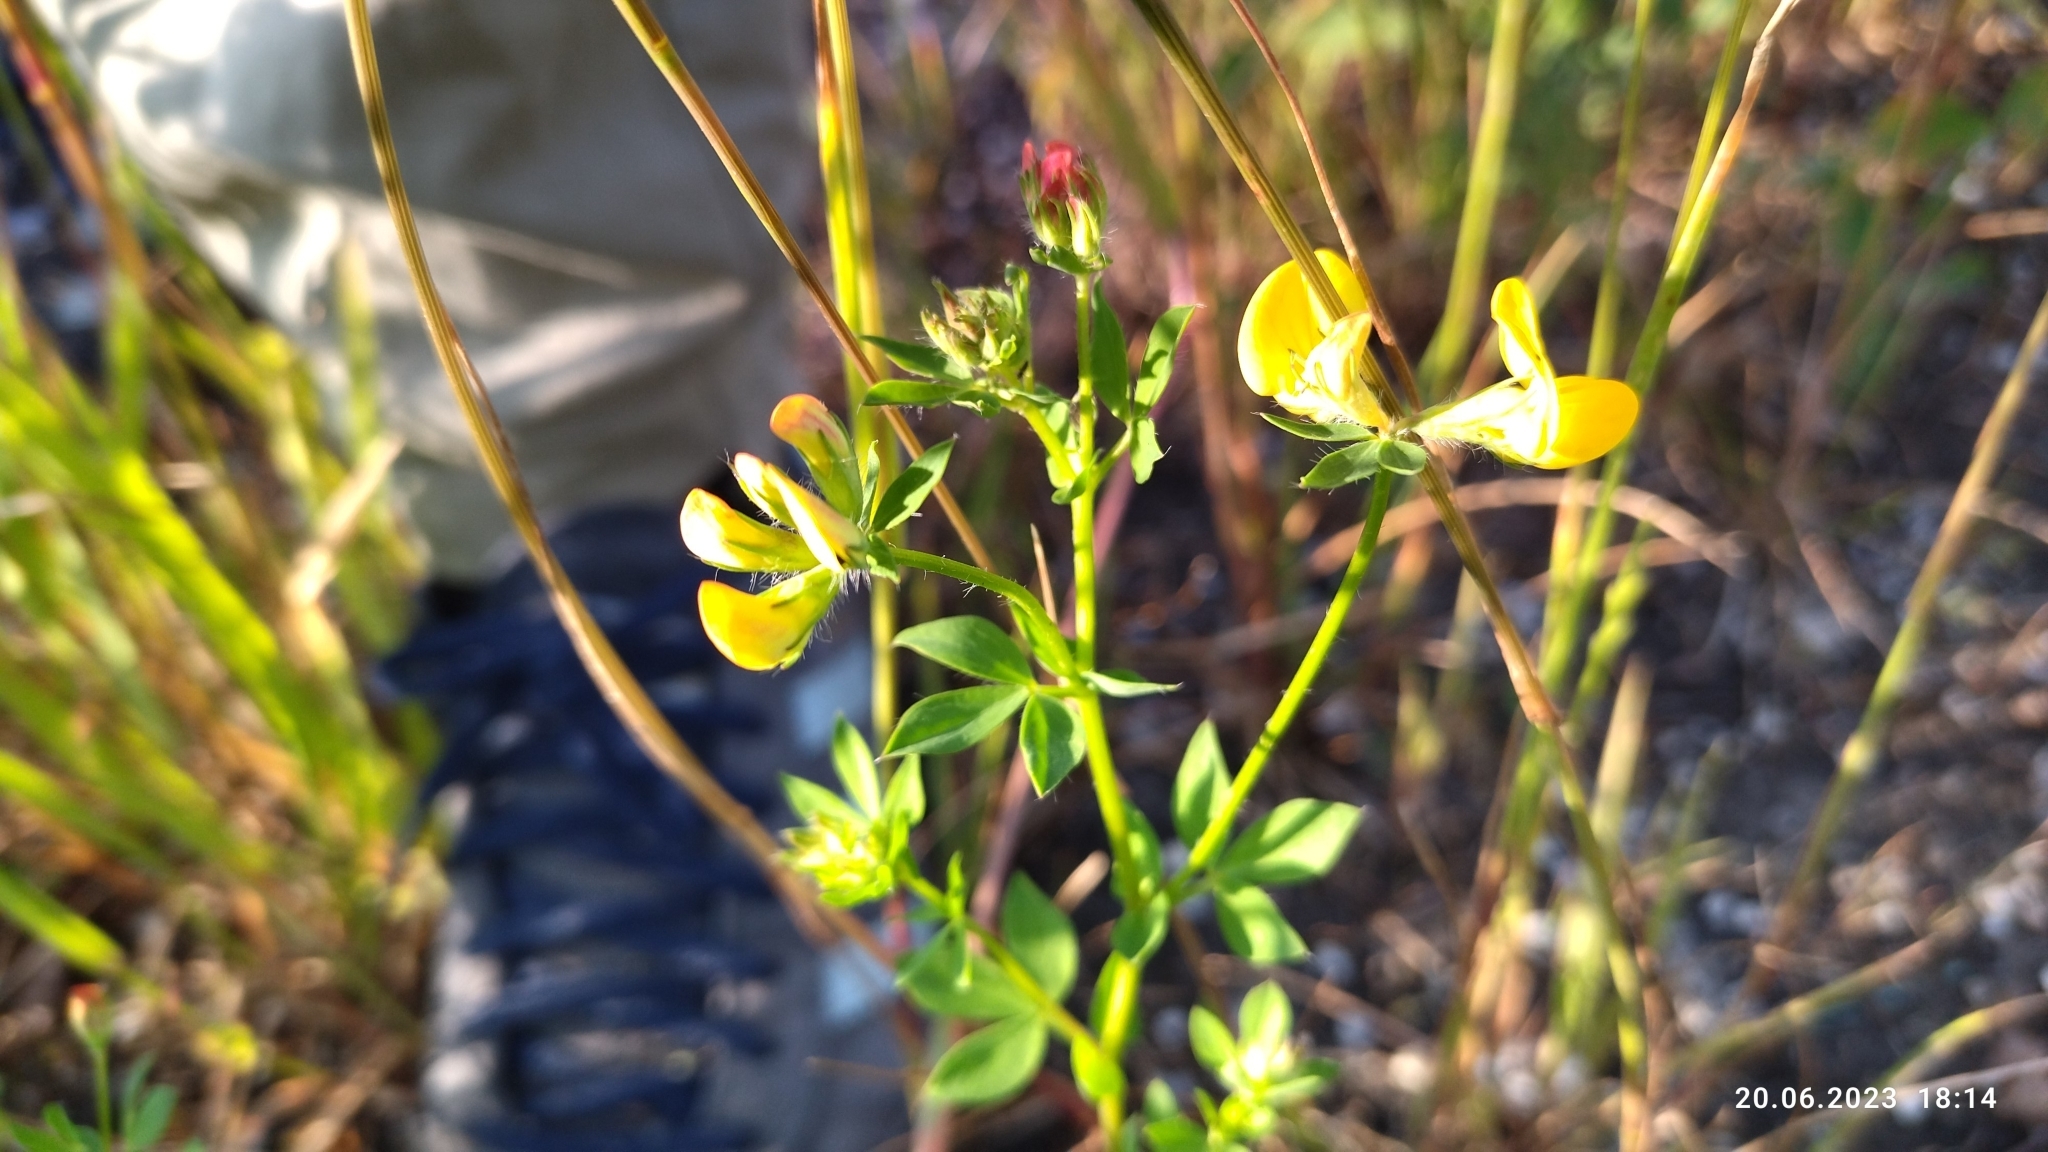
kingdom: Plantae
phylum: Tracheophyta
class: Magnoliopsida
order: Fabales
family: Fabaceae
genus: Lotus
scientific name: Lotus corniculatus
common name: Common bird's-foot-trefoil
